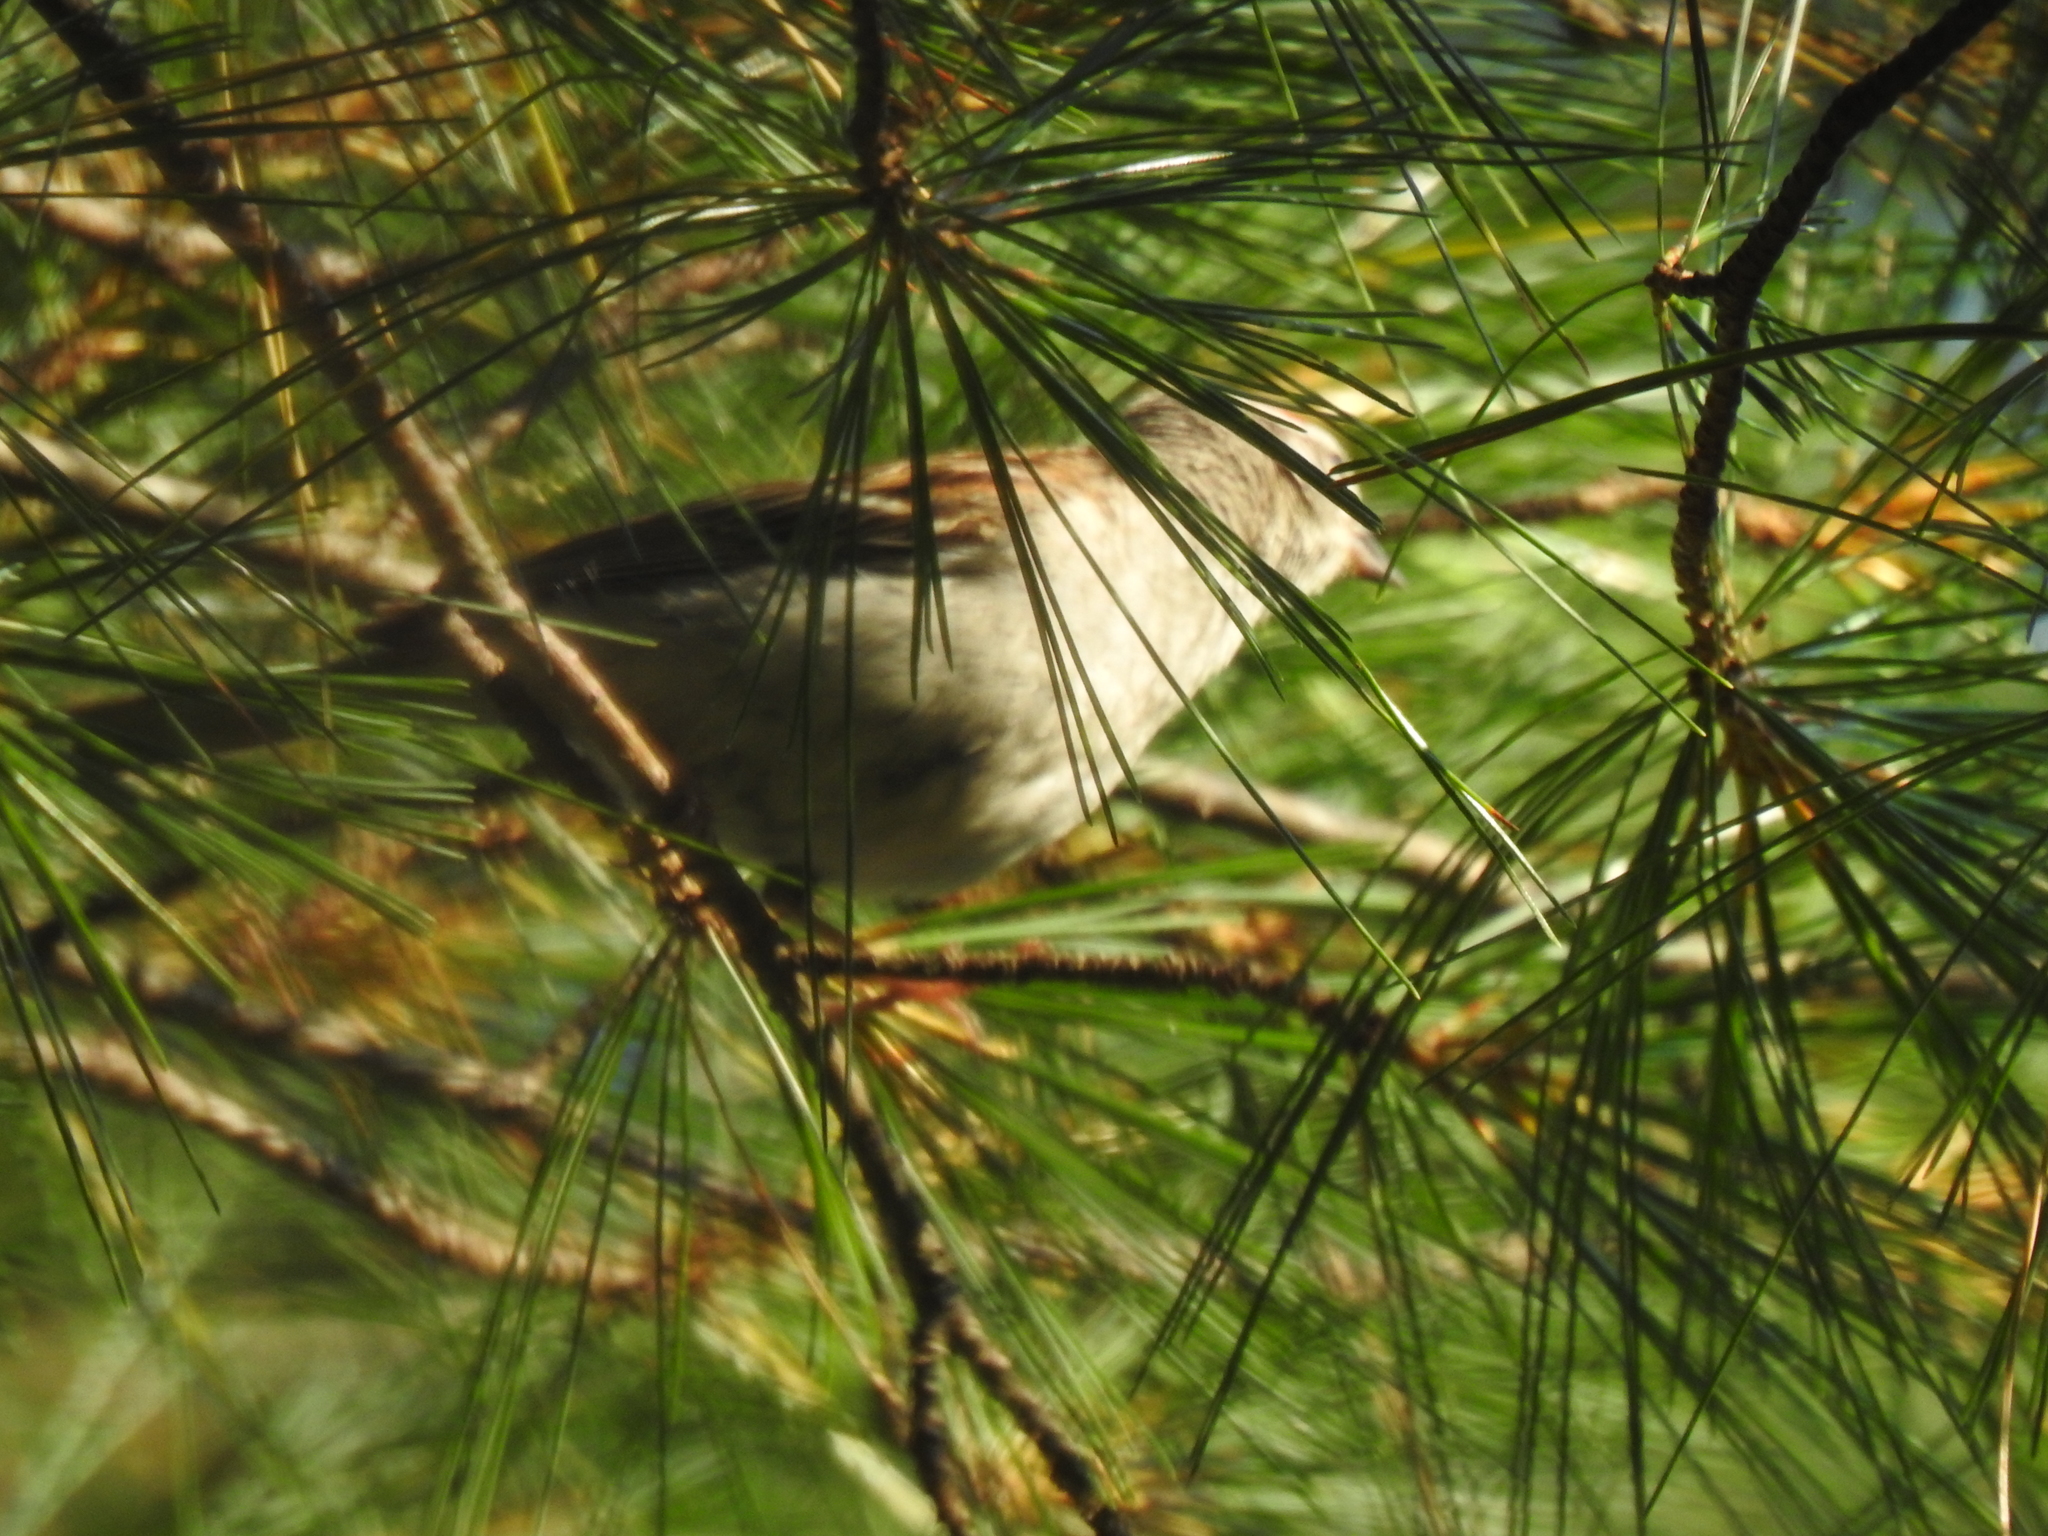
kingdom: Animalia
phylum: Chordata
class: Aves
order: Passeriformes
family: Passerellidae
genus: Spizella
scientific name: Spizella passerina
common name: Chipping sparrow
